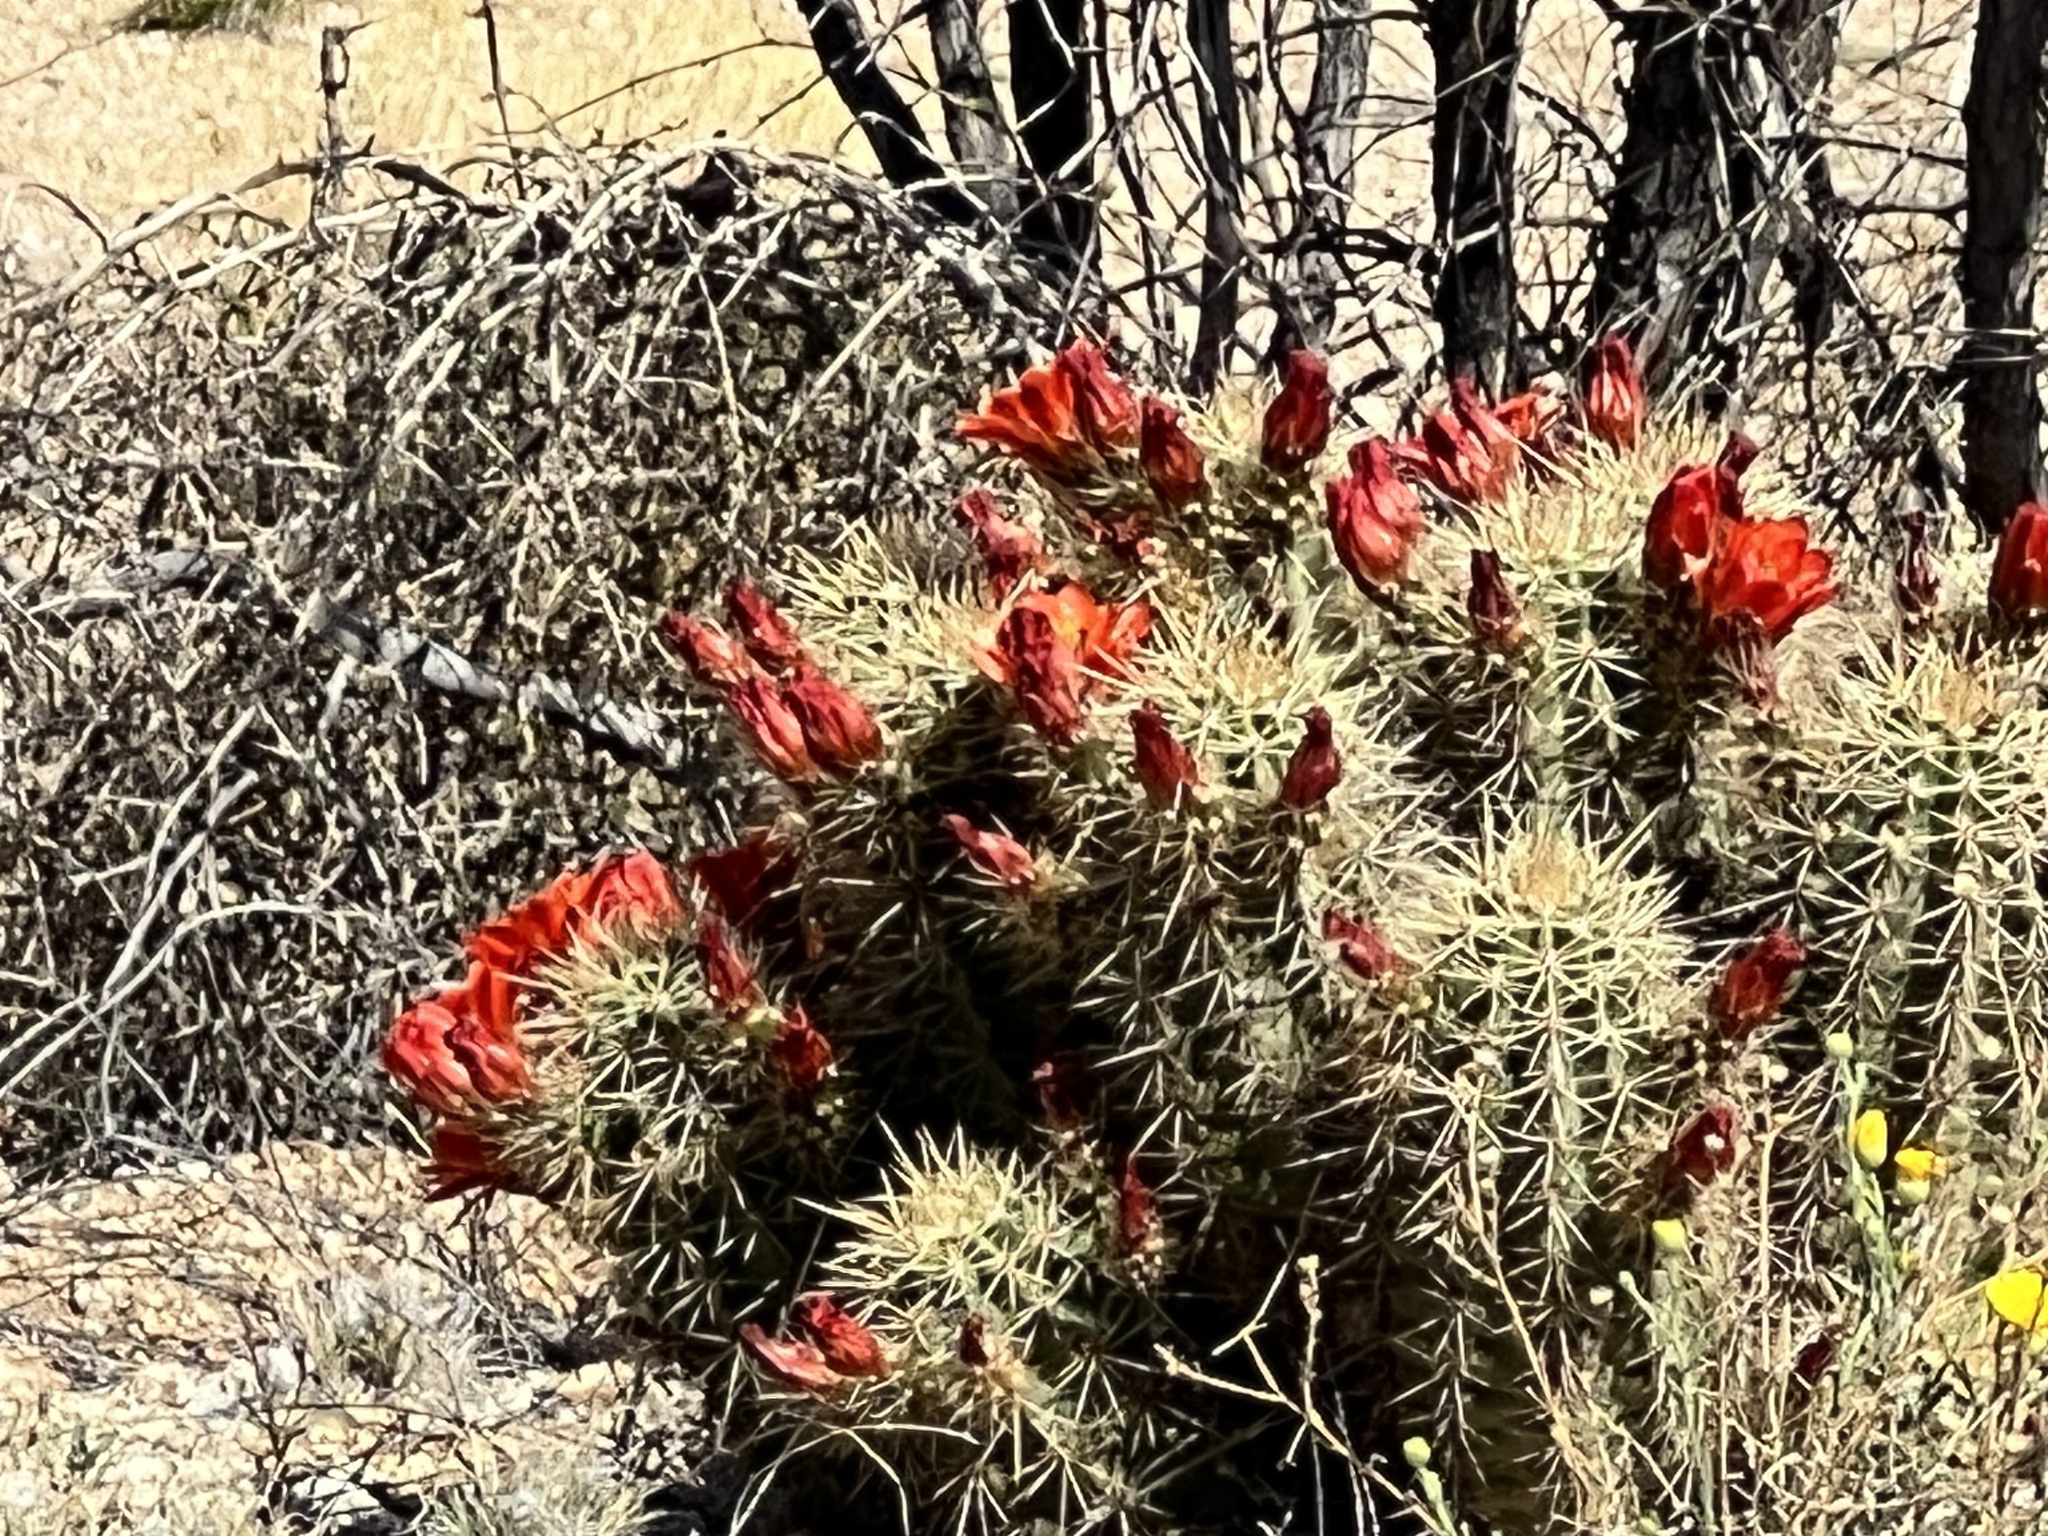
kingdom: Plantae
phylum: Tracheophyta
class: Magnoliopsida
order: Caryophyllales
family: Cactaceae
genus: Echinocereus
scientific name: Echinocereus coccineus
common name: Scarlet hedgehog cactus
